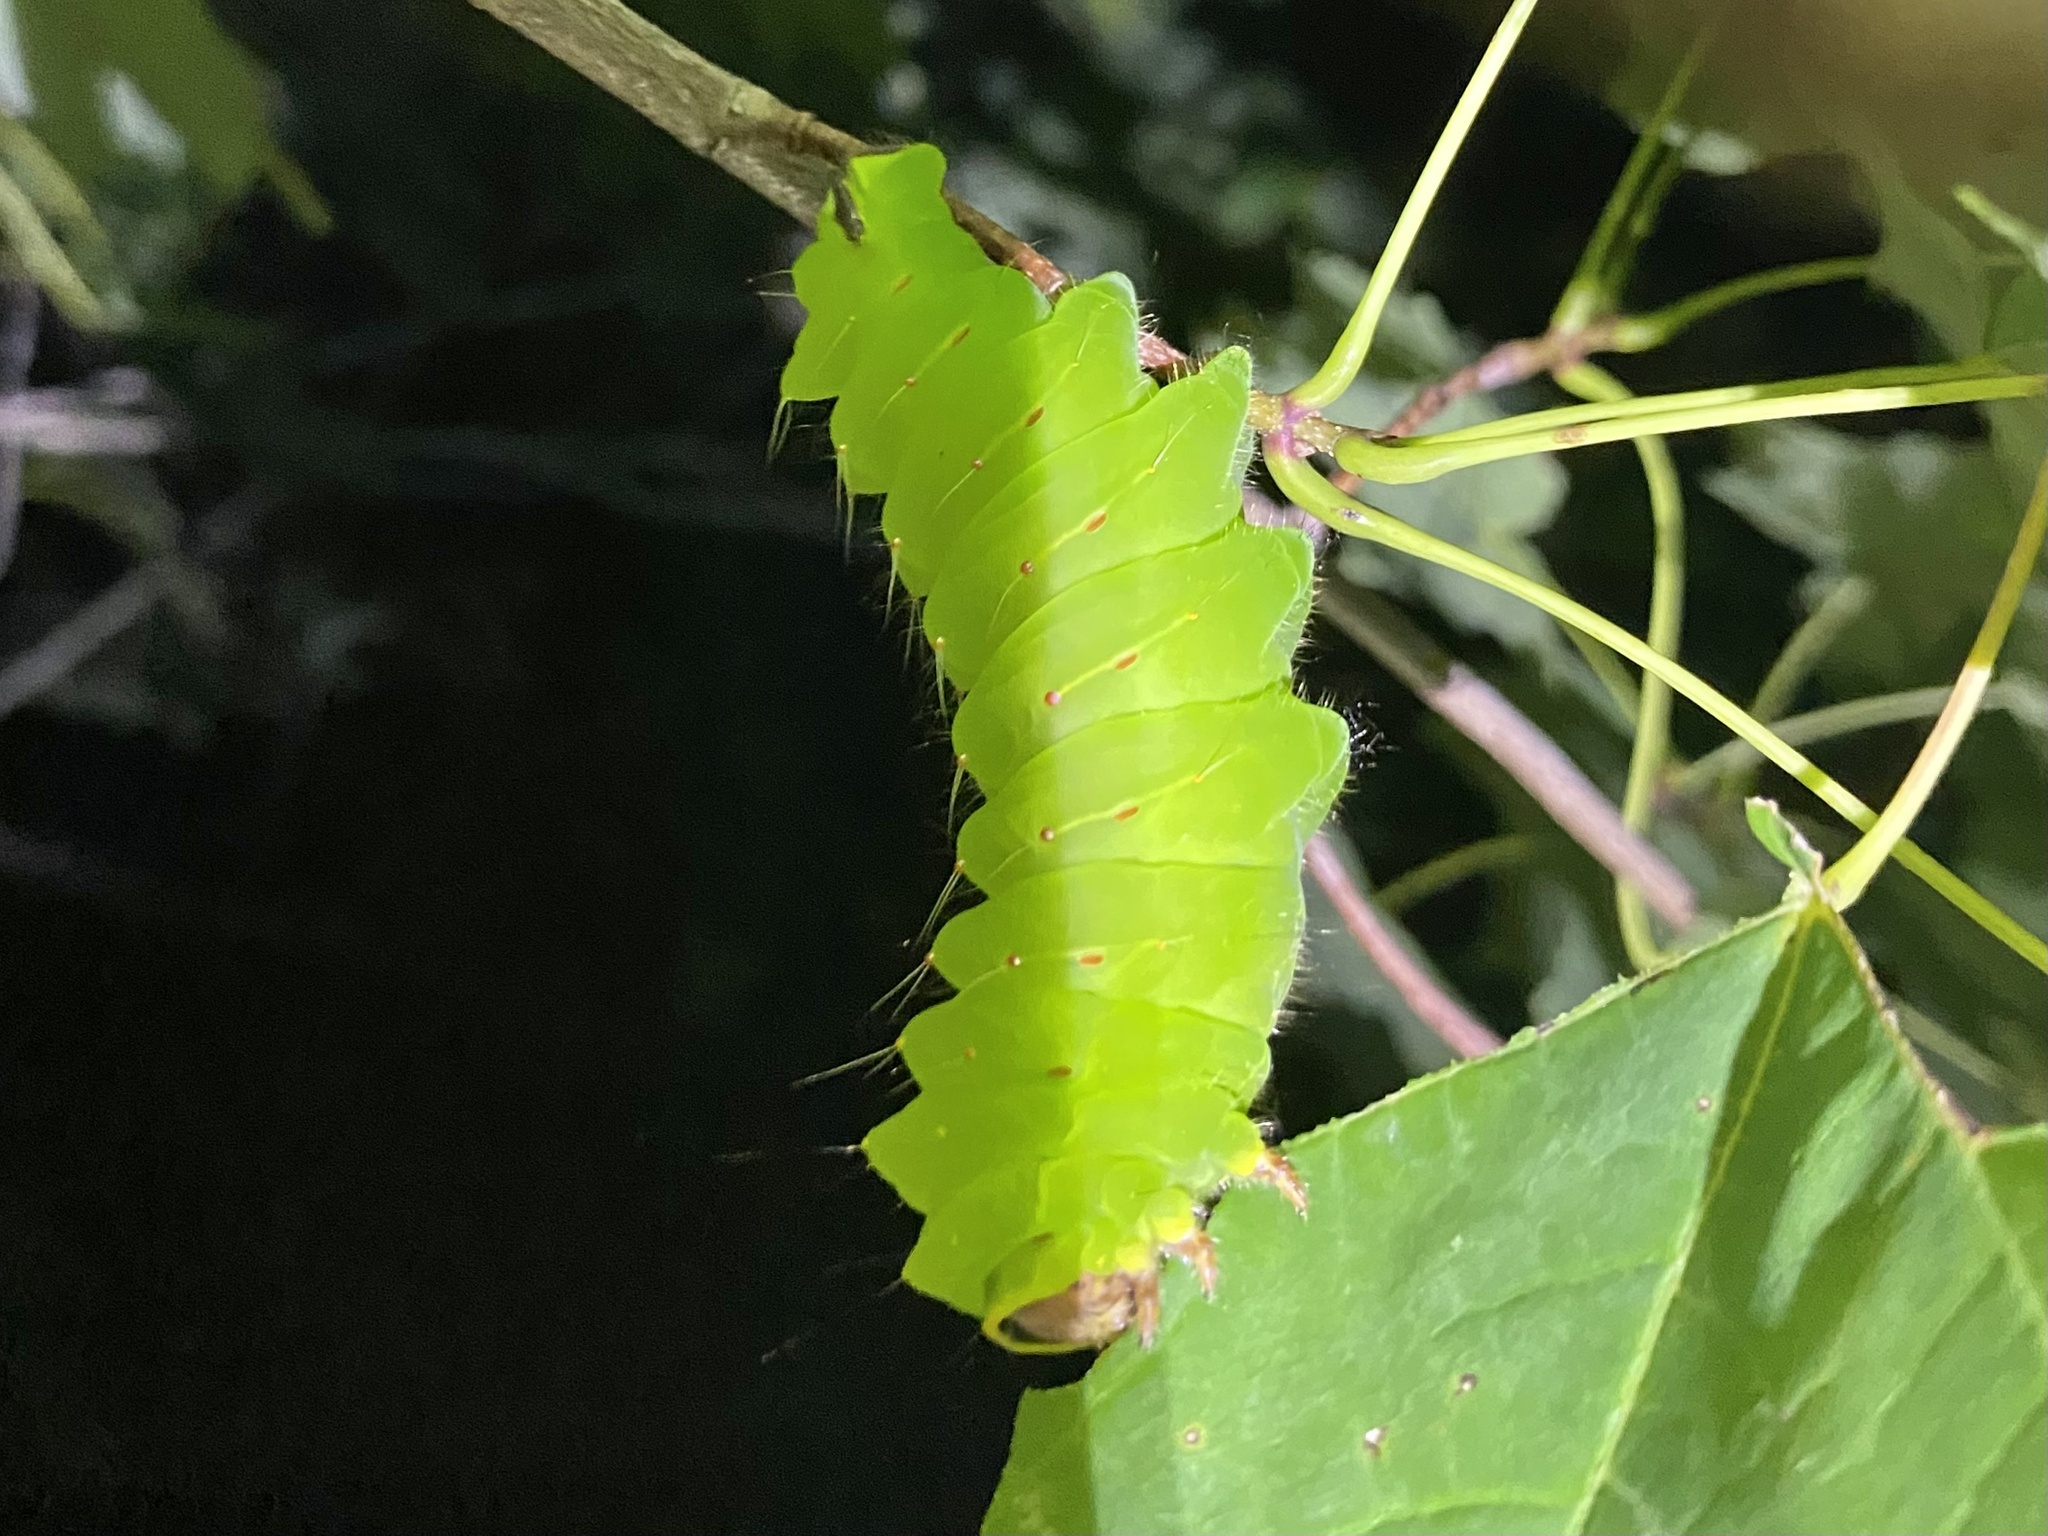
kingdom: Animalia
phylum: Arthropoda
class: Insecta
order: Lepidoptera
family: Saturniidae
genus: Antheraea
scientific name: Antheraea polyphemus
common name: Polyphemus moth
